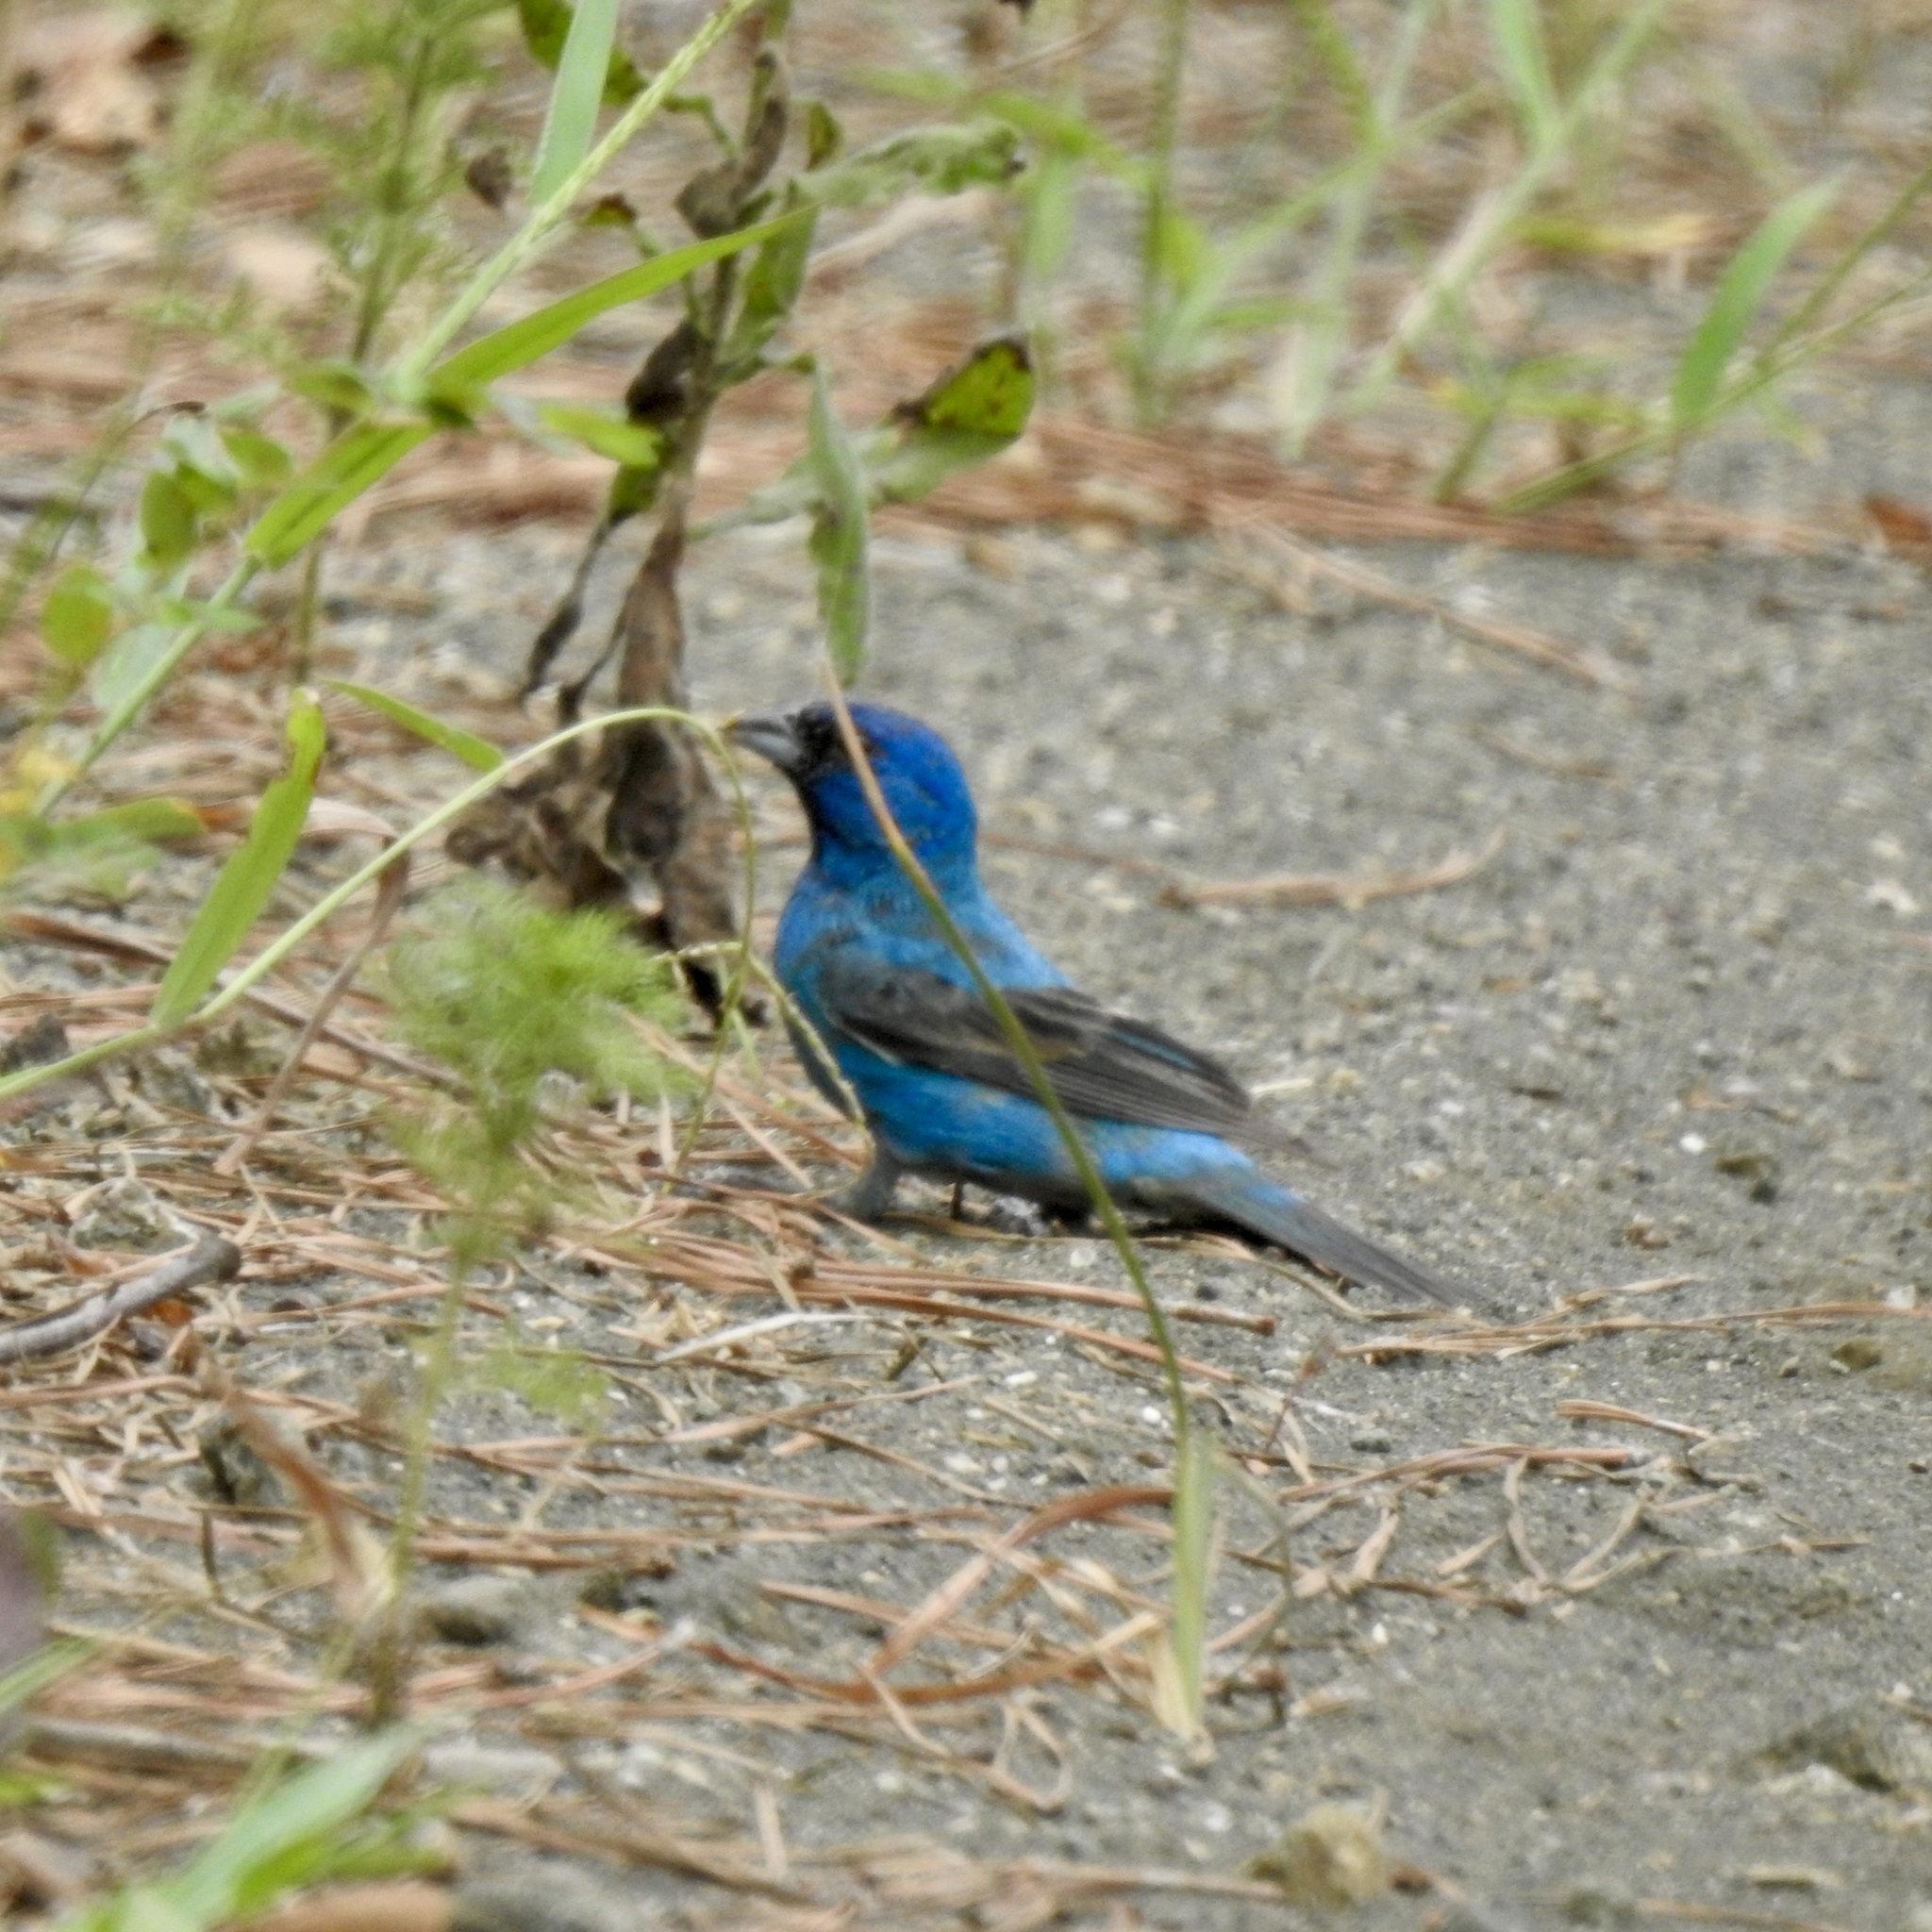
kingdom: Animalia
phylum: Chordata
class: Aves
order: Passeriformes
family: Cardinalidae
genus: Passerina
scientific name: Passerina cyanea
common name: Indigo bunting
